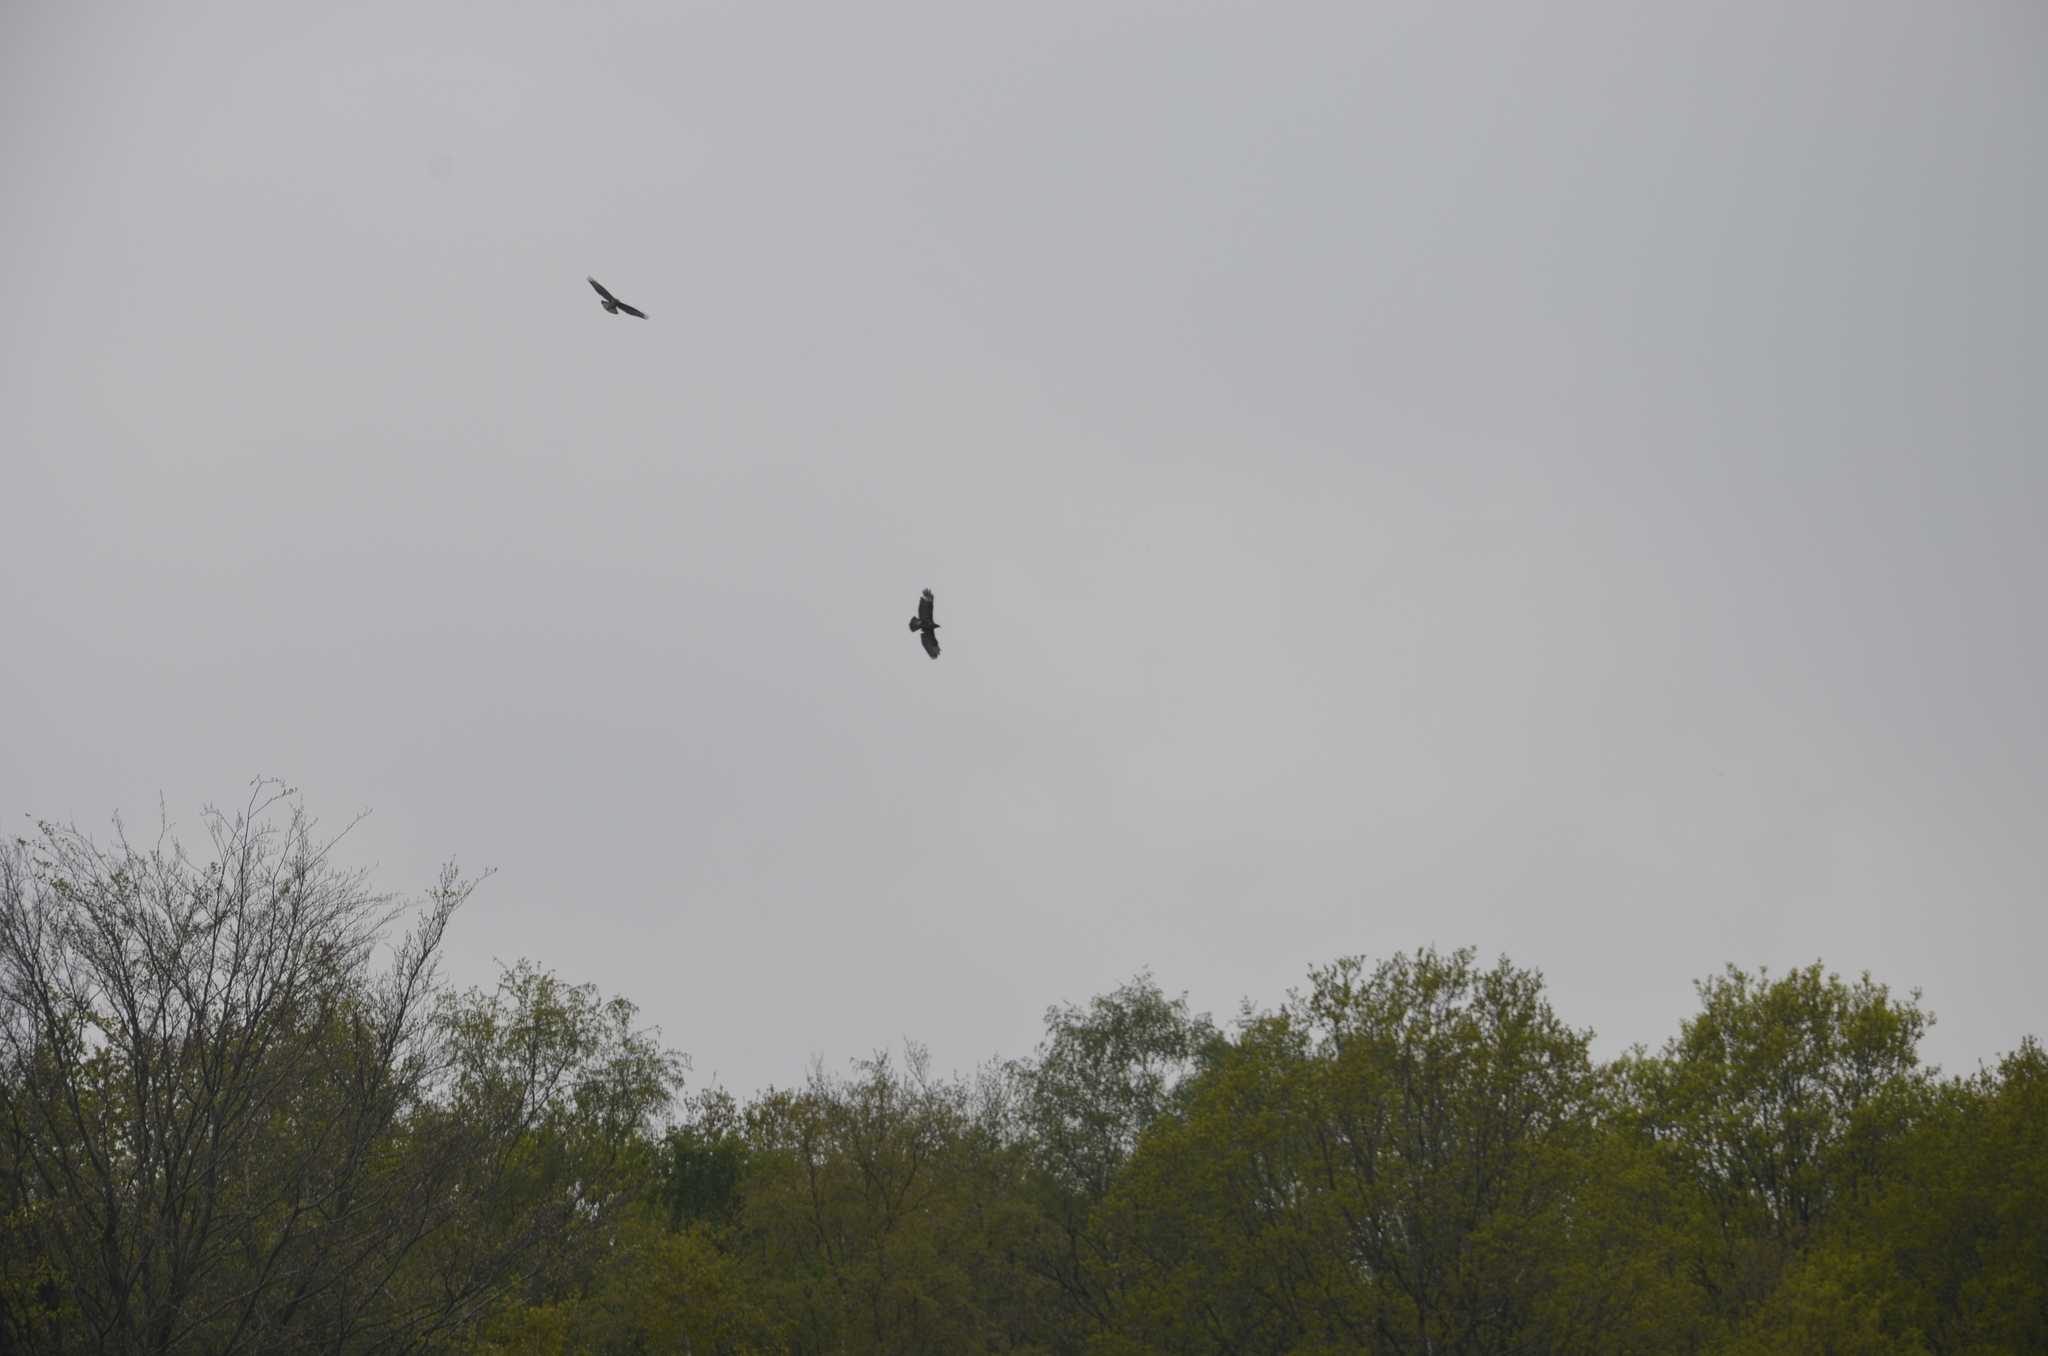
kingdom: Animalia
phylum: Chordata
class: Aves
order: Accipitriformes
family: Accipitridae
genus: Buteo
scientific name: Buteo buteo
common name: Common buzzard
